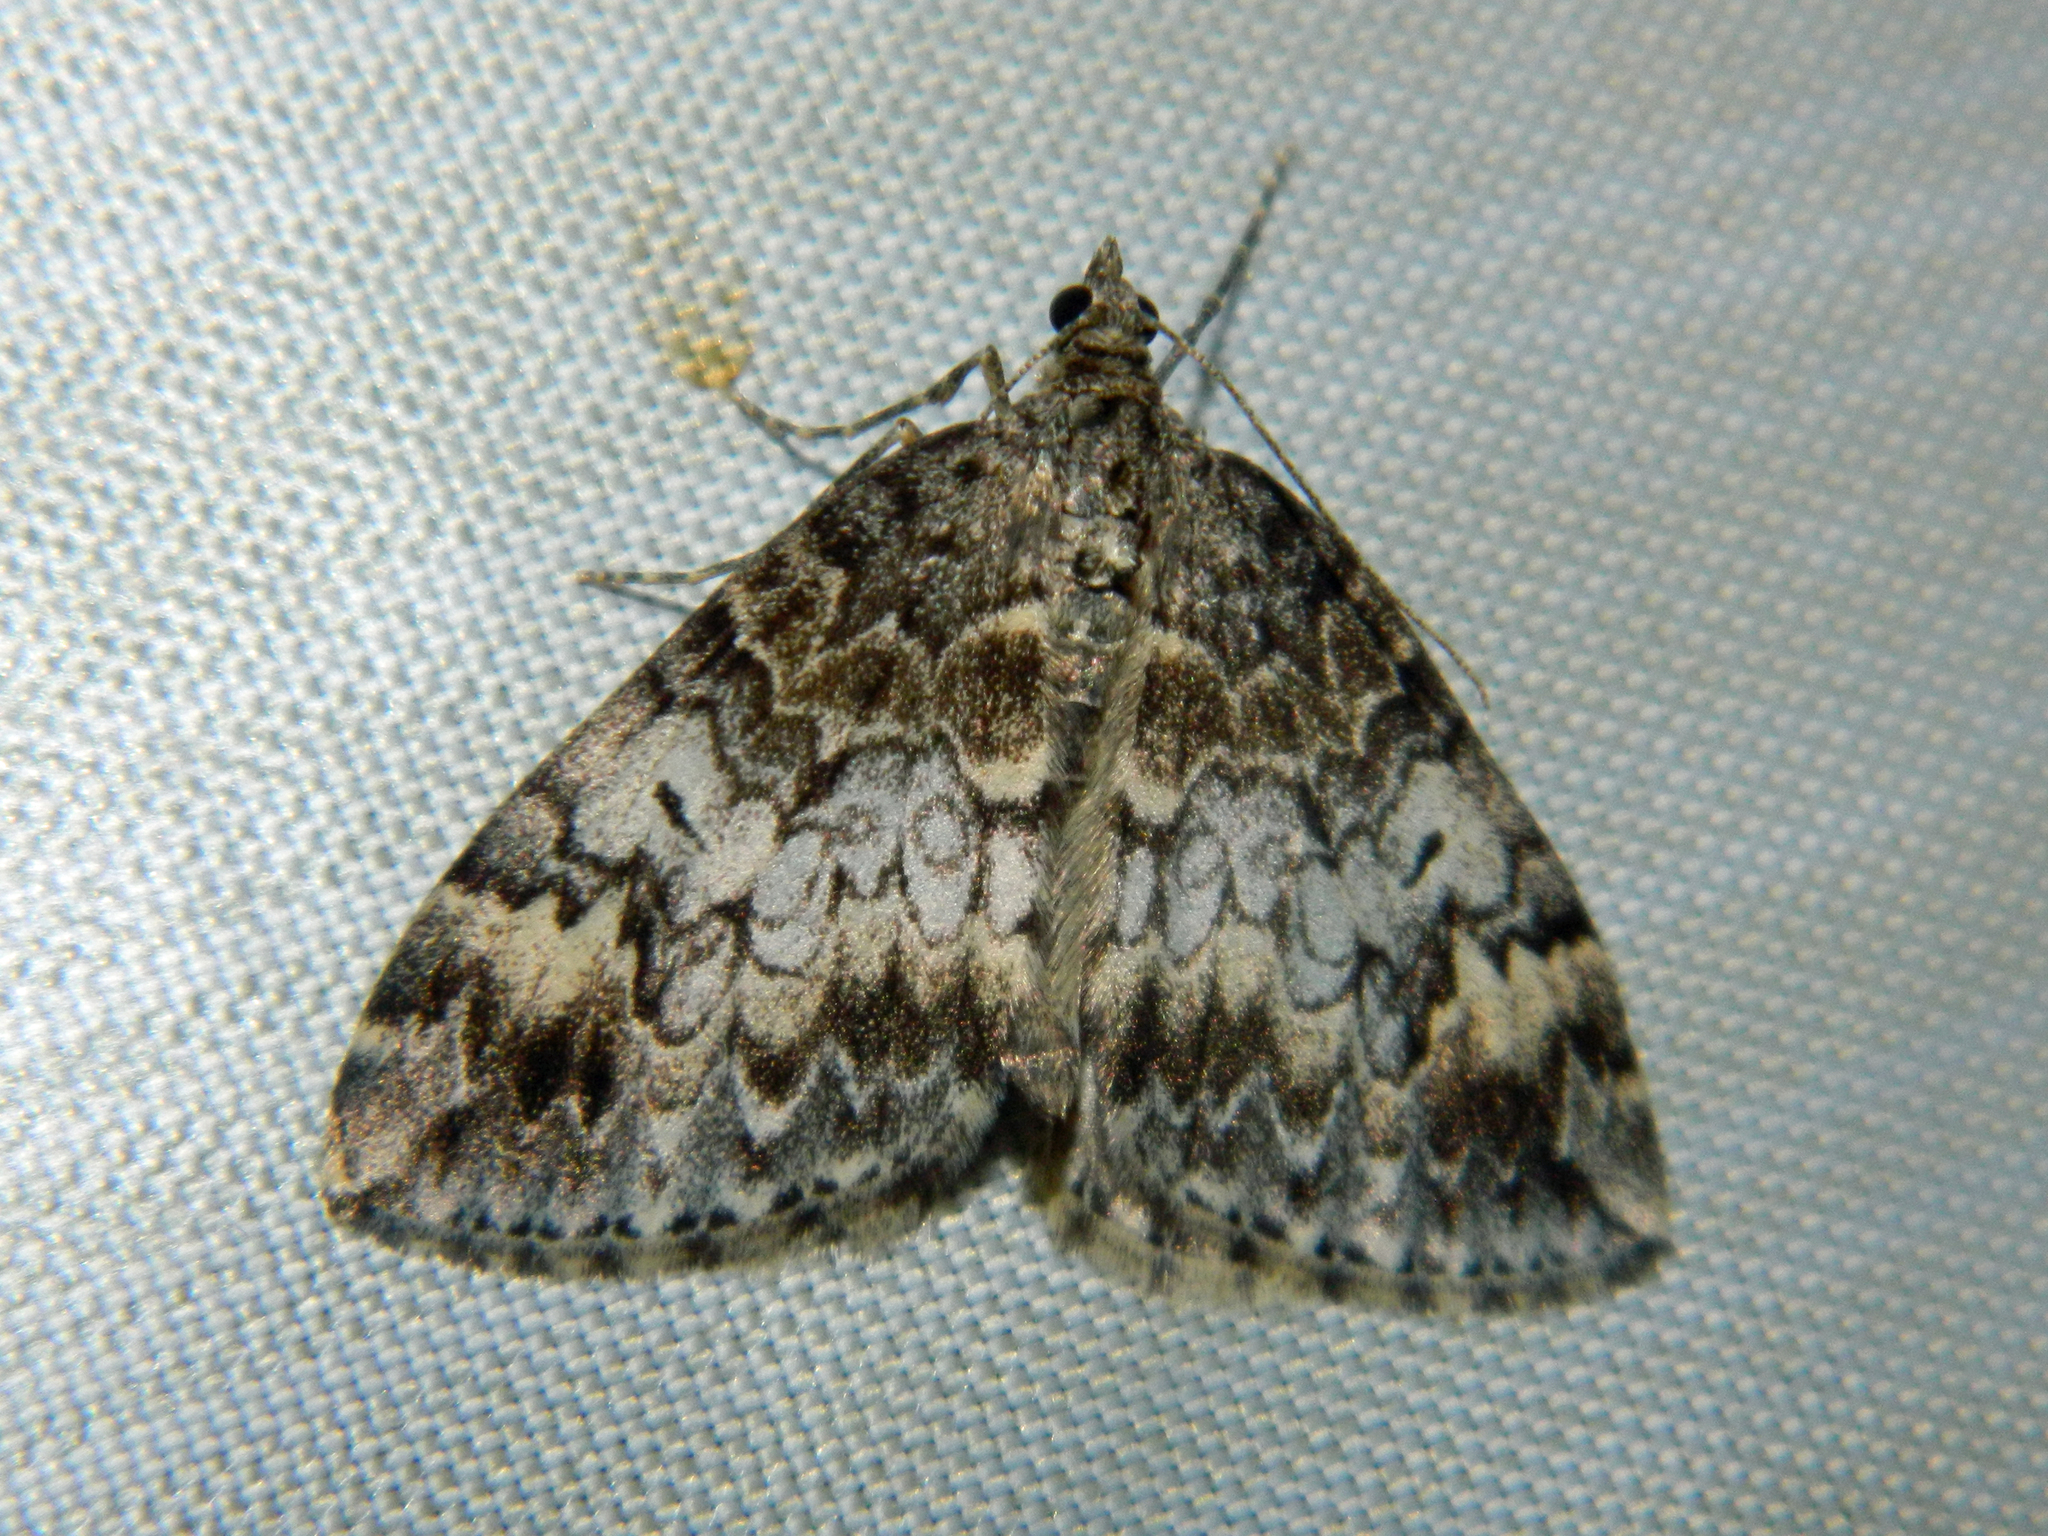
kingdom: Animalia
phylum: Arthropoda
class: Insecta
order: Lepidoptera
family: Geometridae
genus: Dysstroma
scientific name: Dysstroma walkerata
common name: Marbled carpet
